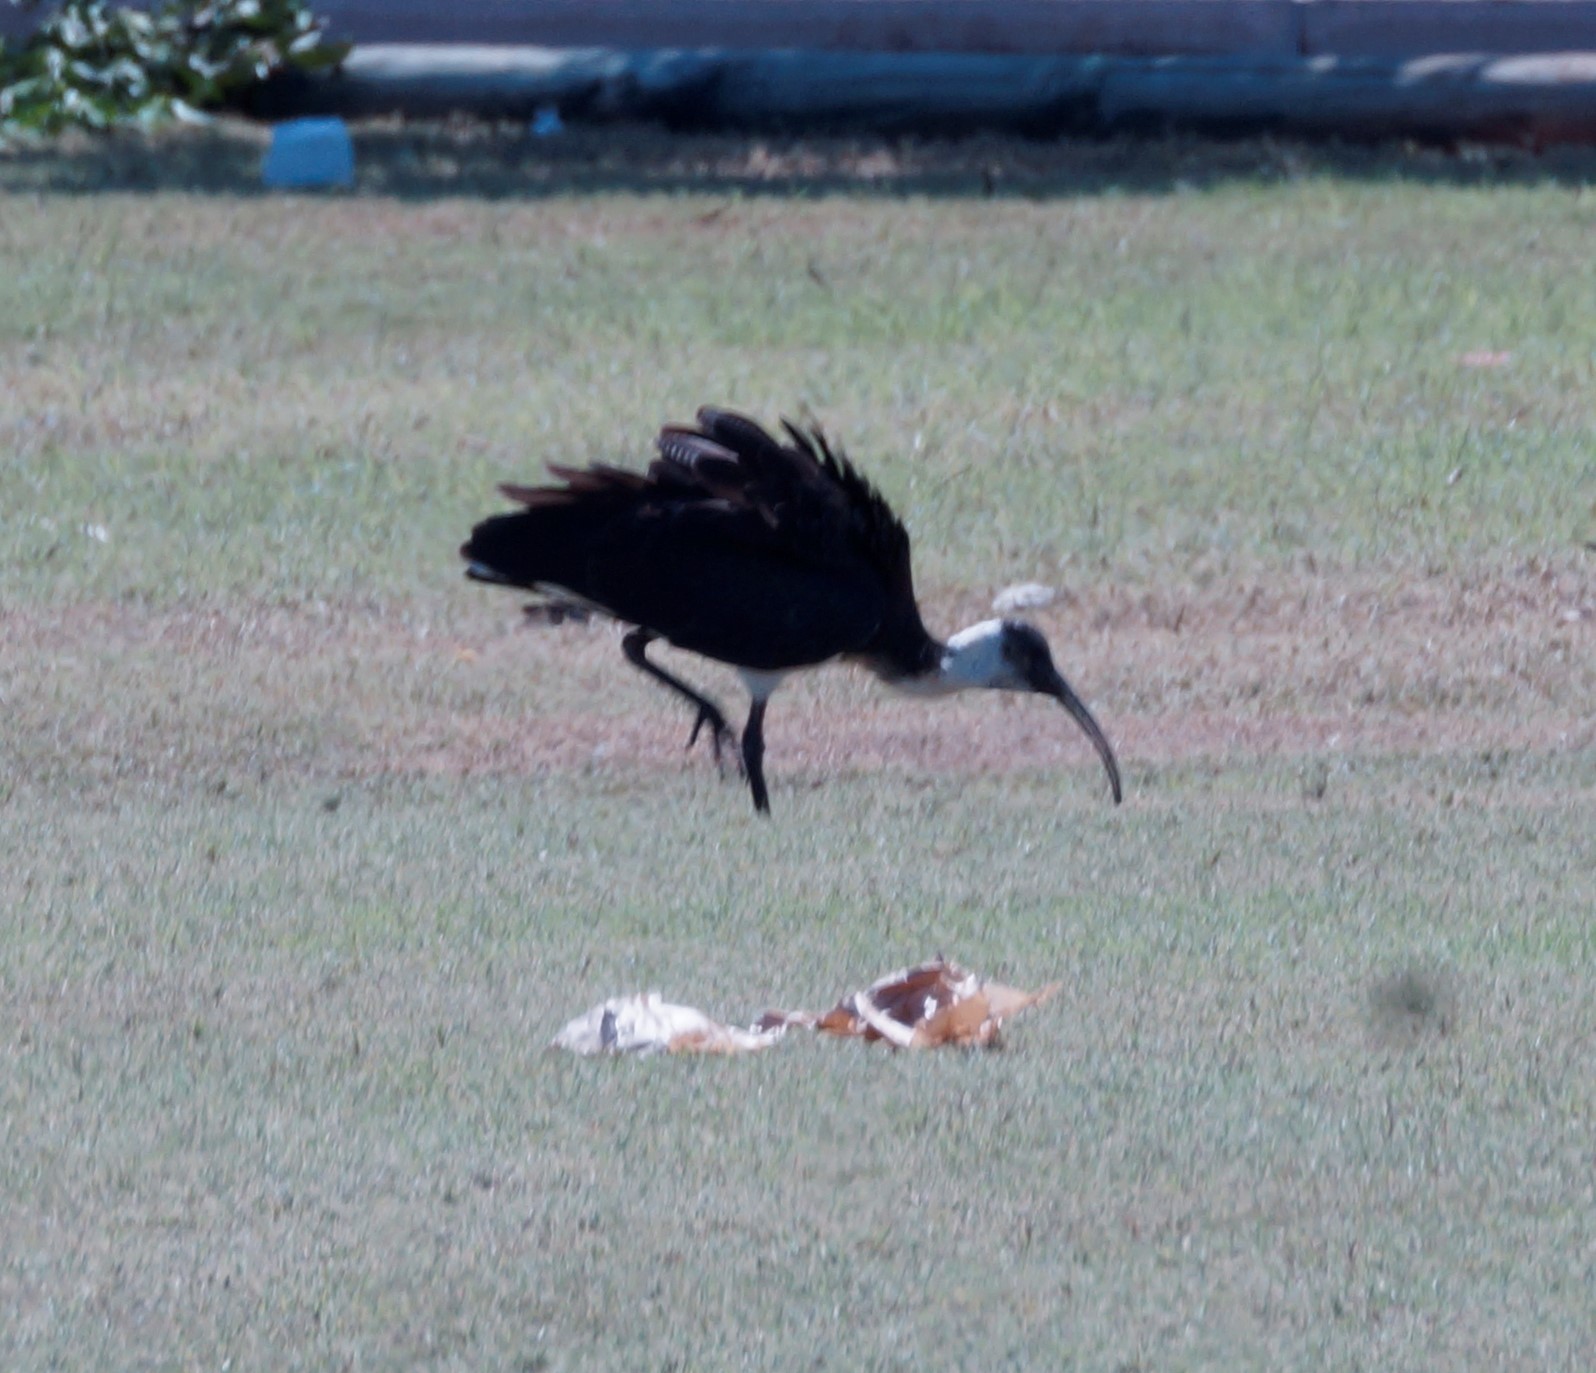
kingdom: Animalia
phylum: Chordata
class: Aves
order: Pelecaniformes
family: Threskiornithidae
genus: Threskiornis
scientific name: Threskiornis spinicollis
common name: Straw-necked ibis
